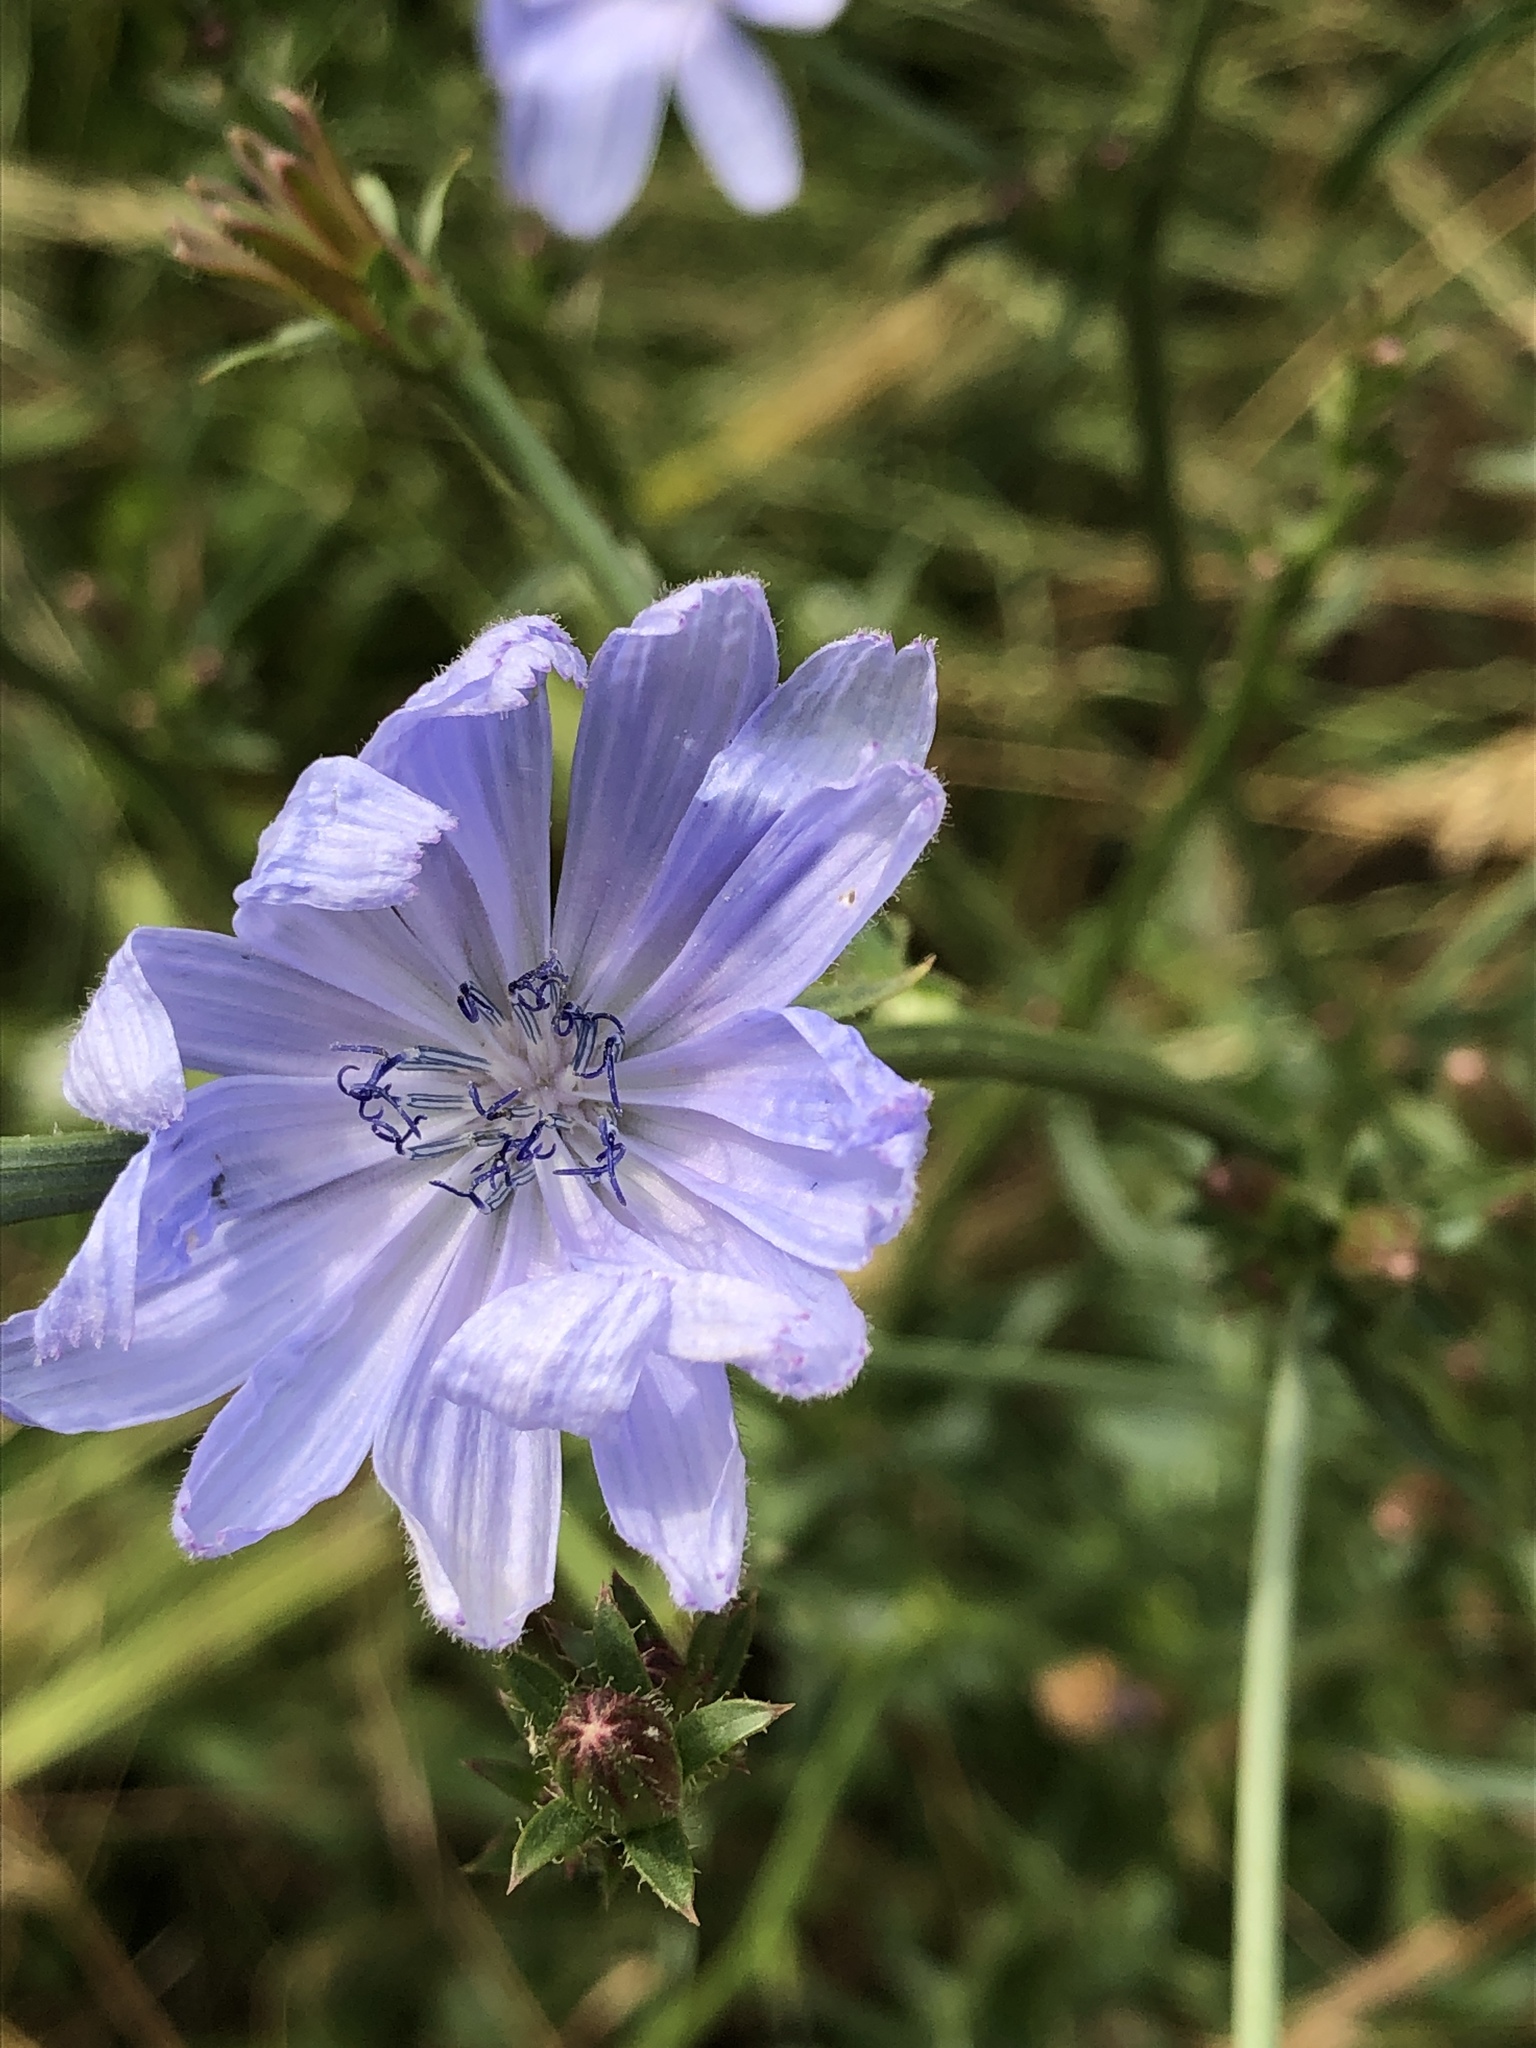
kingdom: Plantae
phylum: Tracheophyta
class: Magnoliopsida
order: Asterales
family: Asteraceae
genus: Cichorium
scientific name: Cichorium intybus
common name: Chicory
